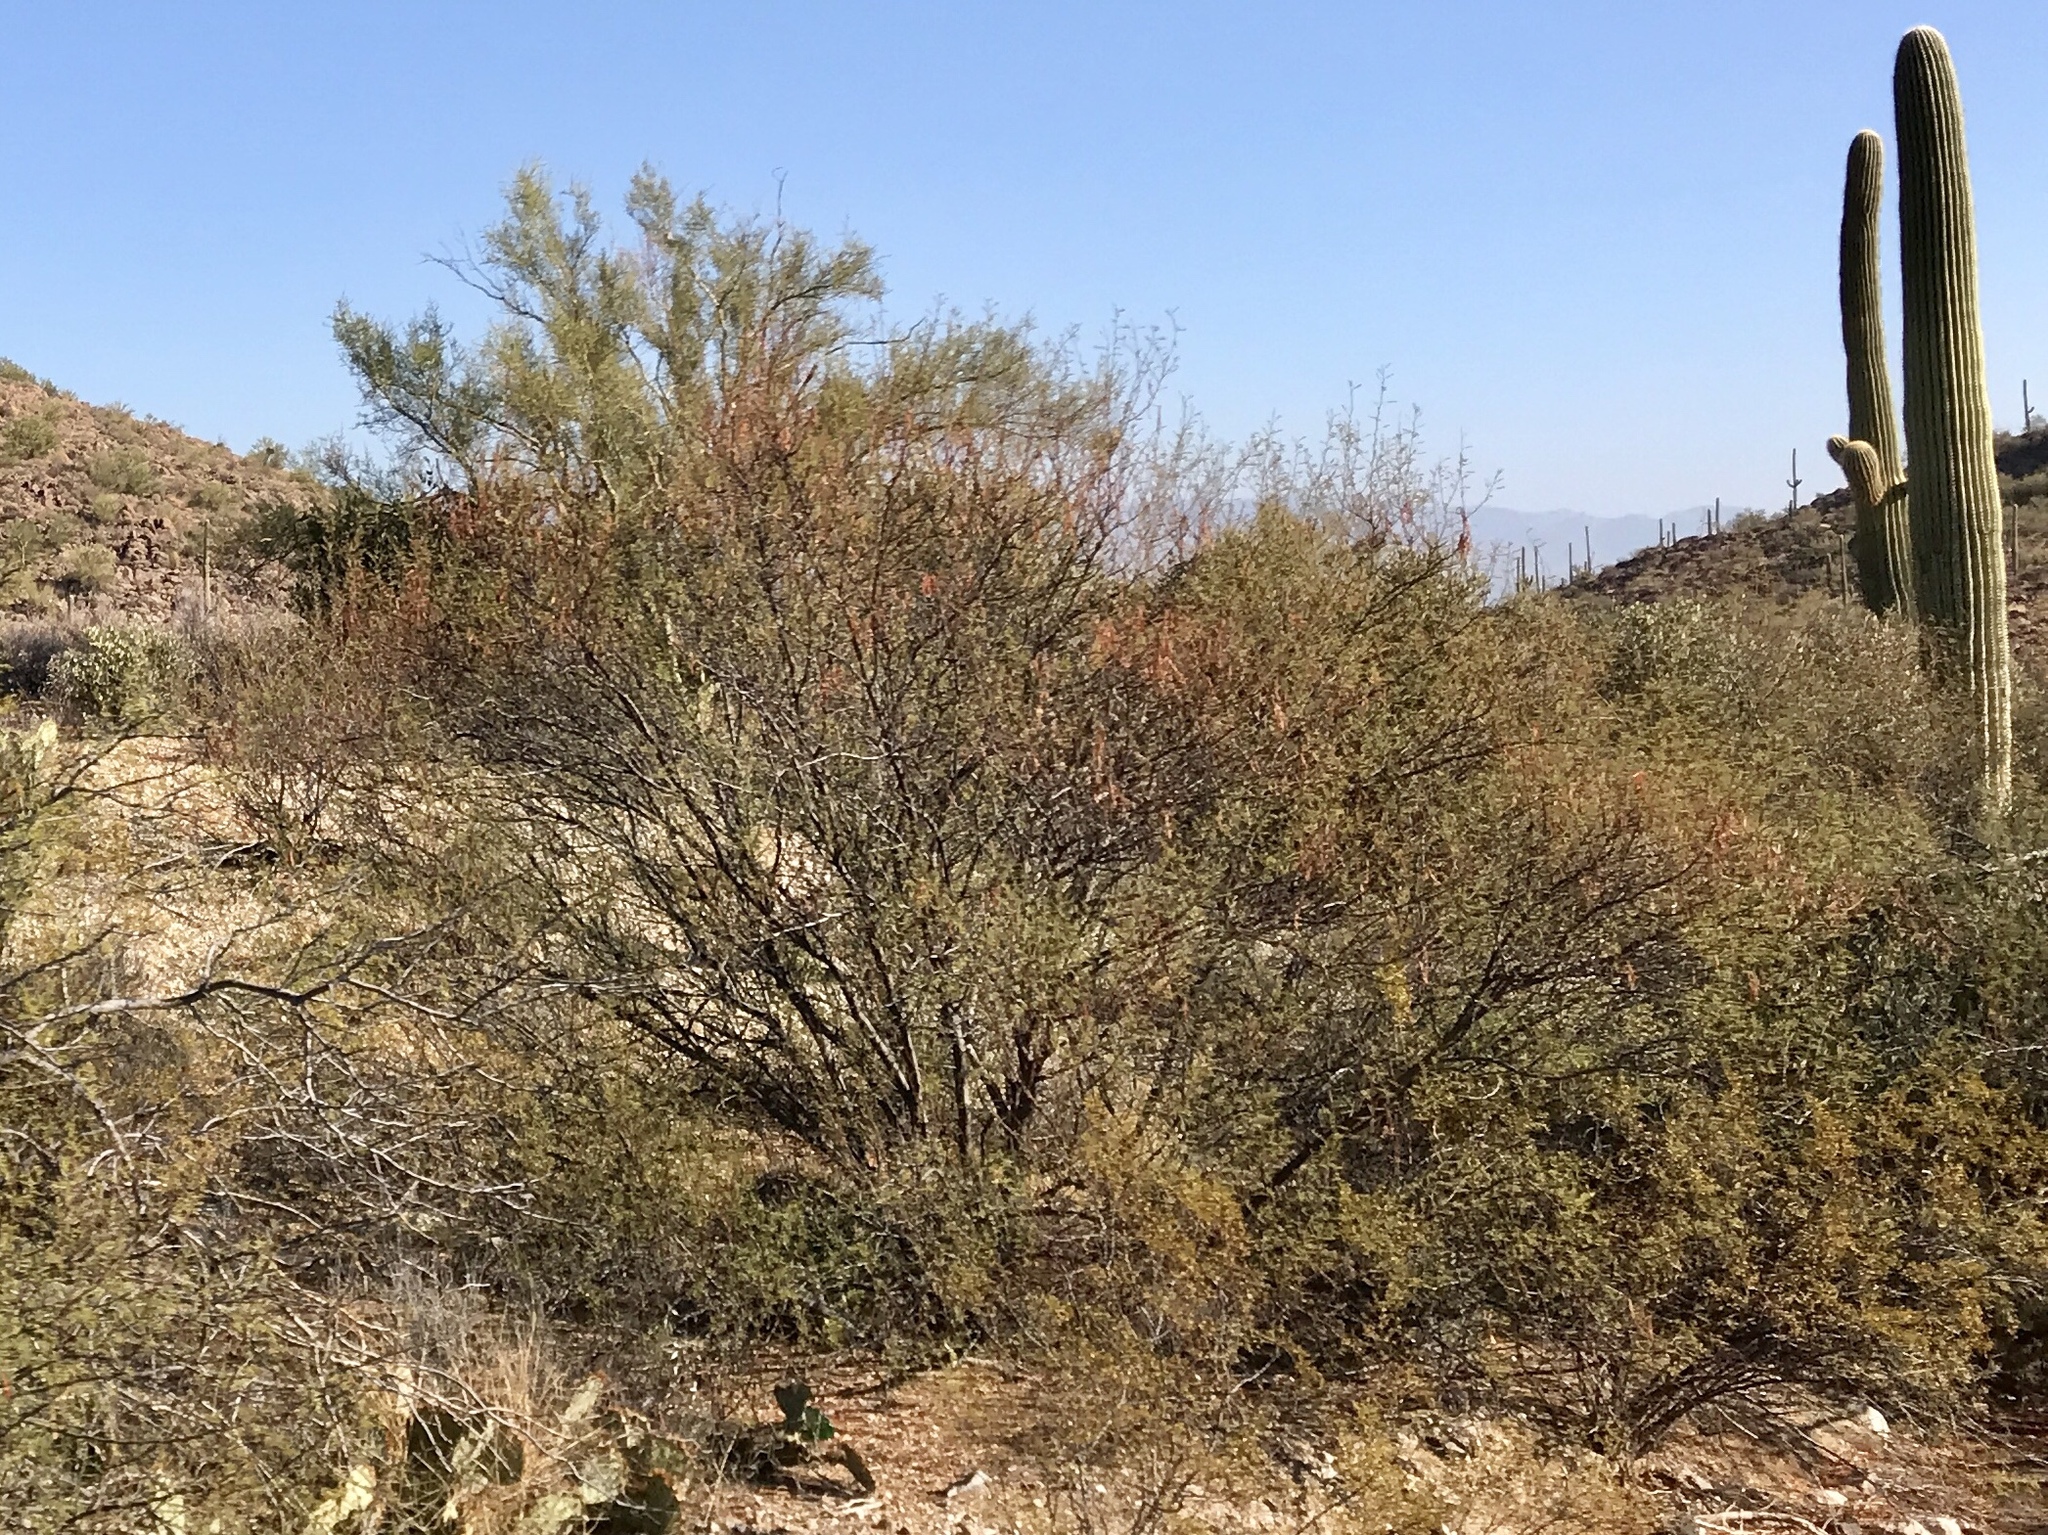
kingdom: Plantae
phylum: Tracheophyta
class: Magnoliopsida
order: Fabales
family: Fabaceae
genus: Vachellia
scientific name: Vachellia constricta
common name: Mescat acacia
